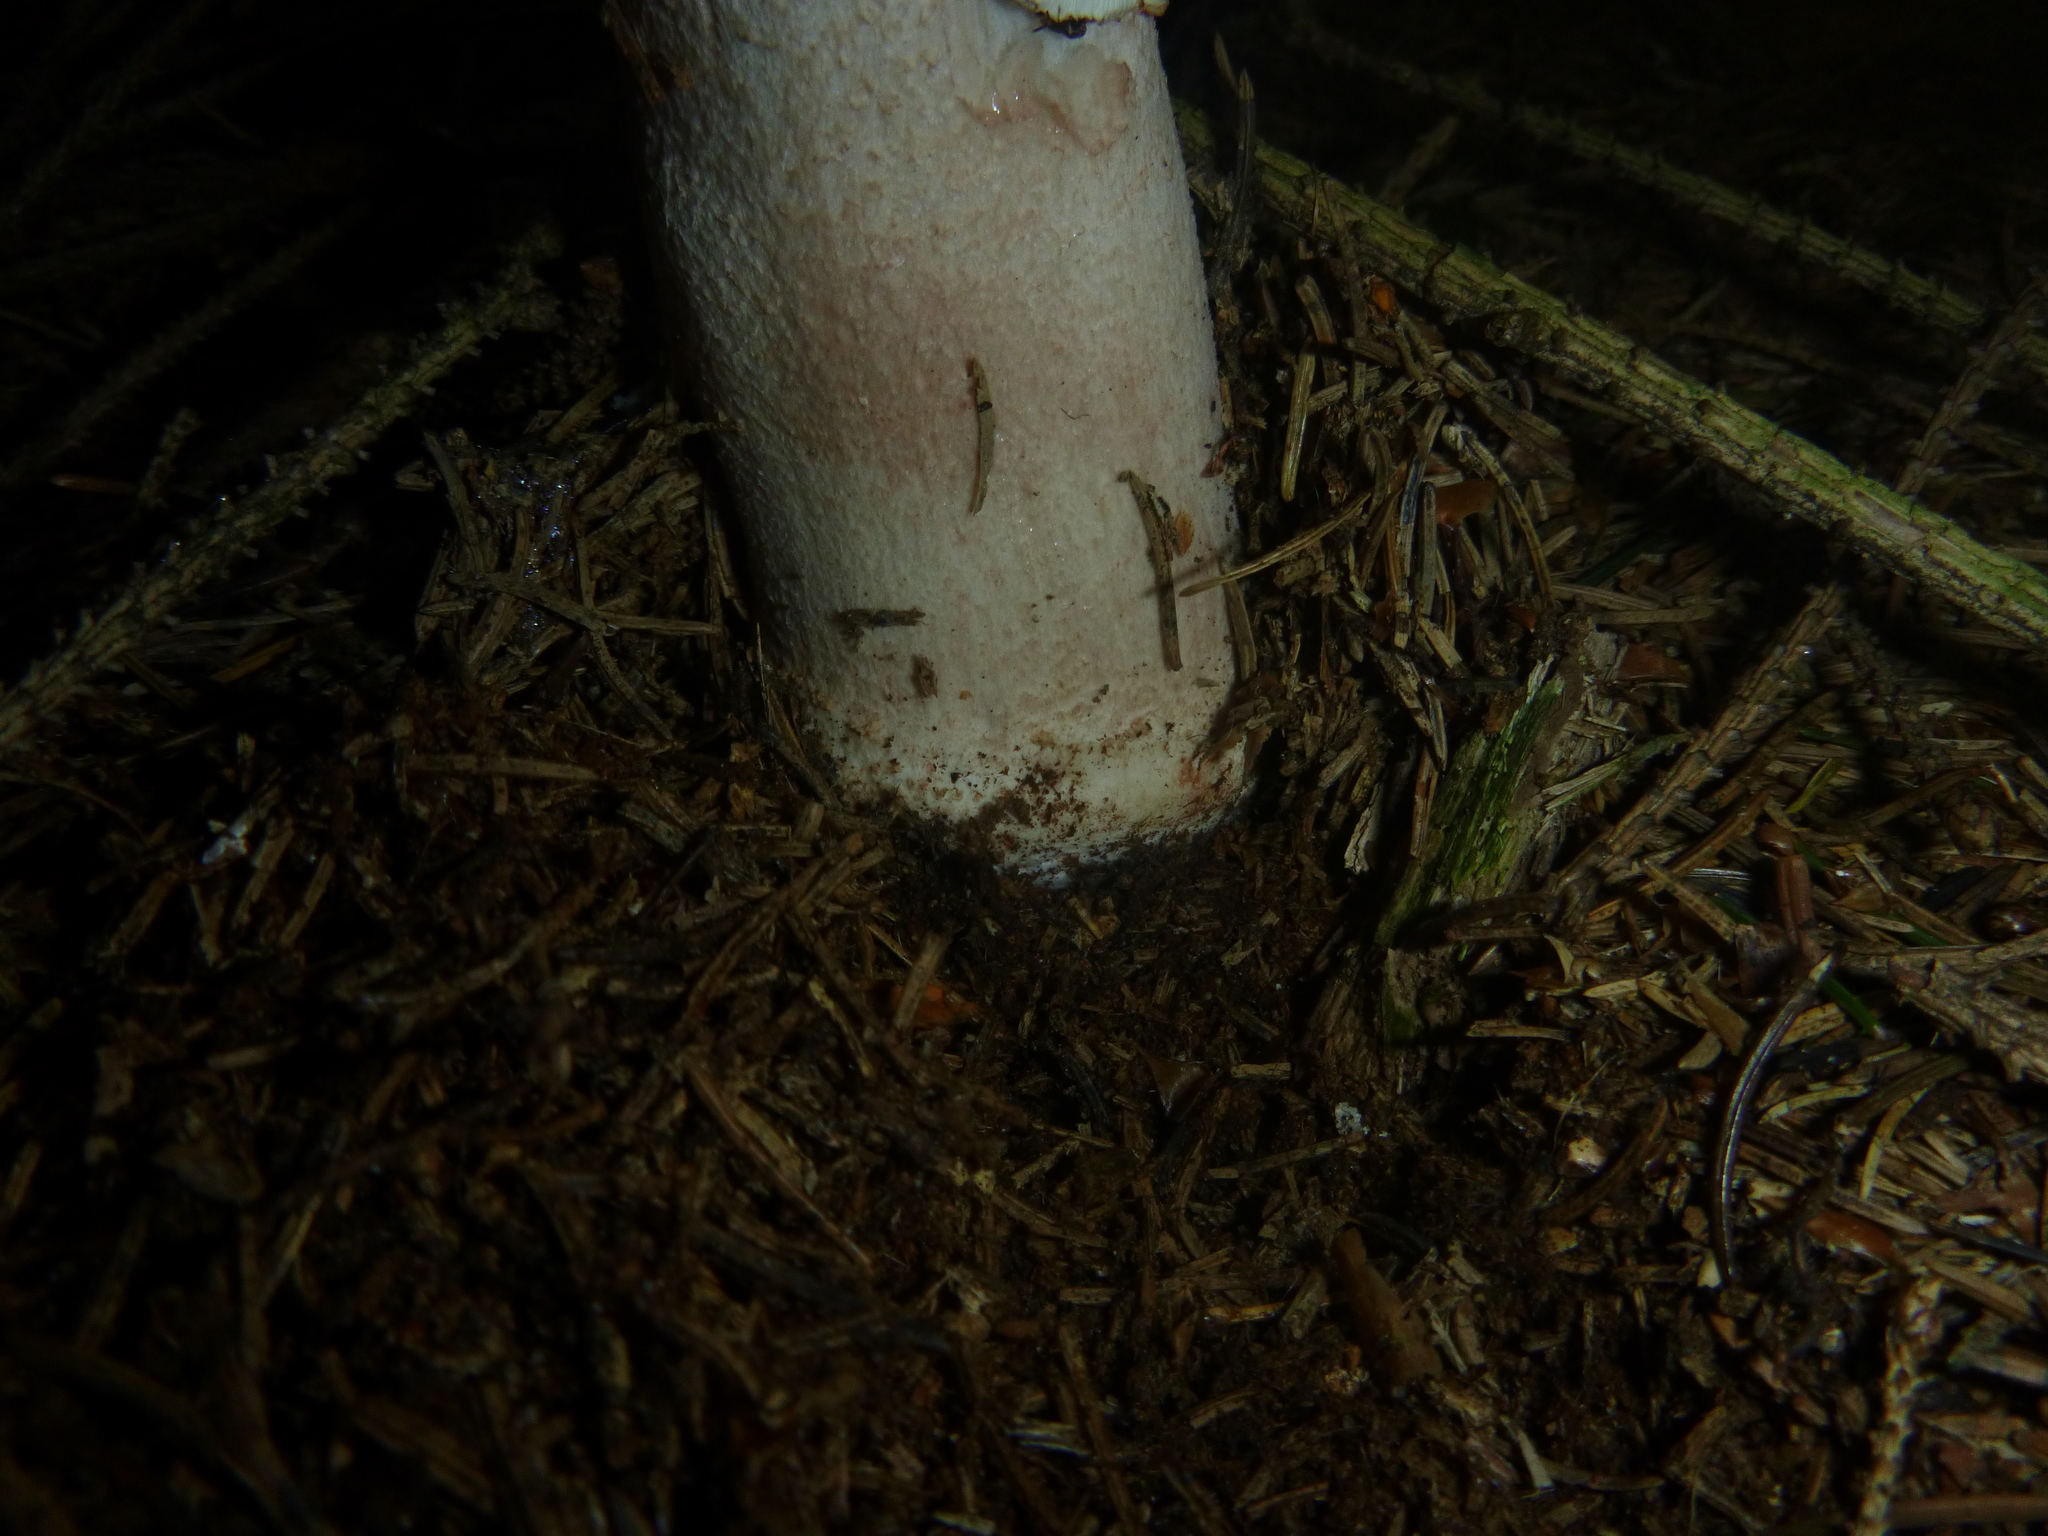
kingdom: Fungi
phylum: Basidiomycota
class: Agaricomycetes
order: Agaricales
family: Amanitaceae
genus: Amanita
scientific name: Amanita rubescens
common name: Blusher
